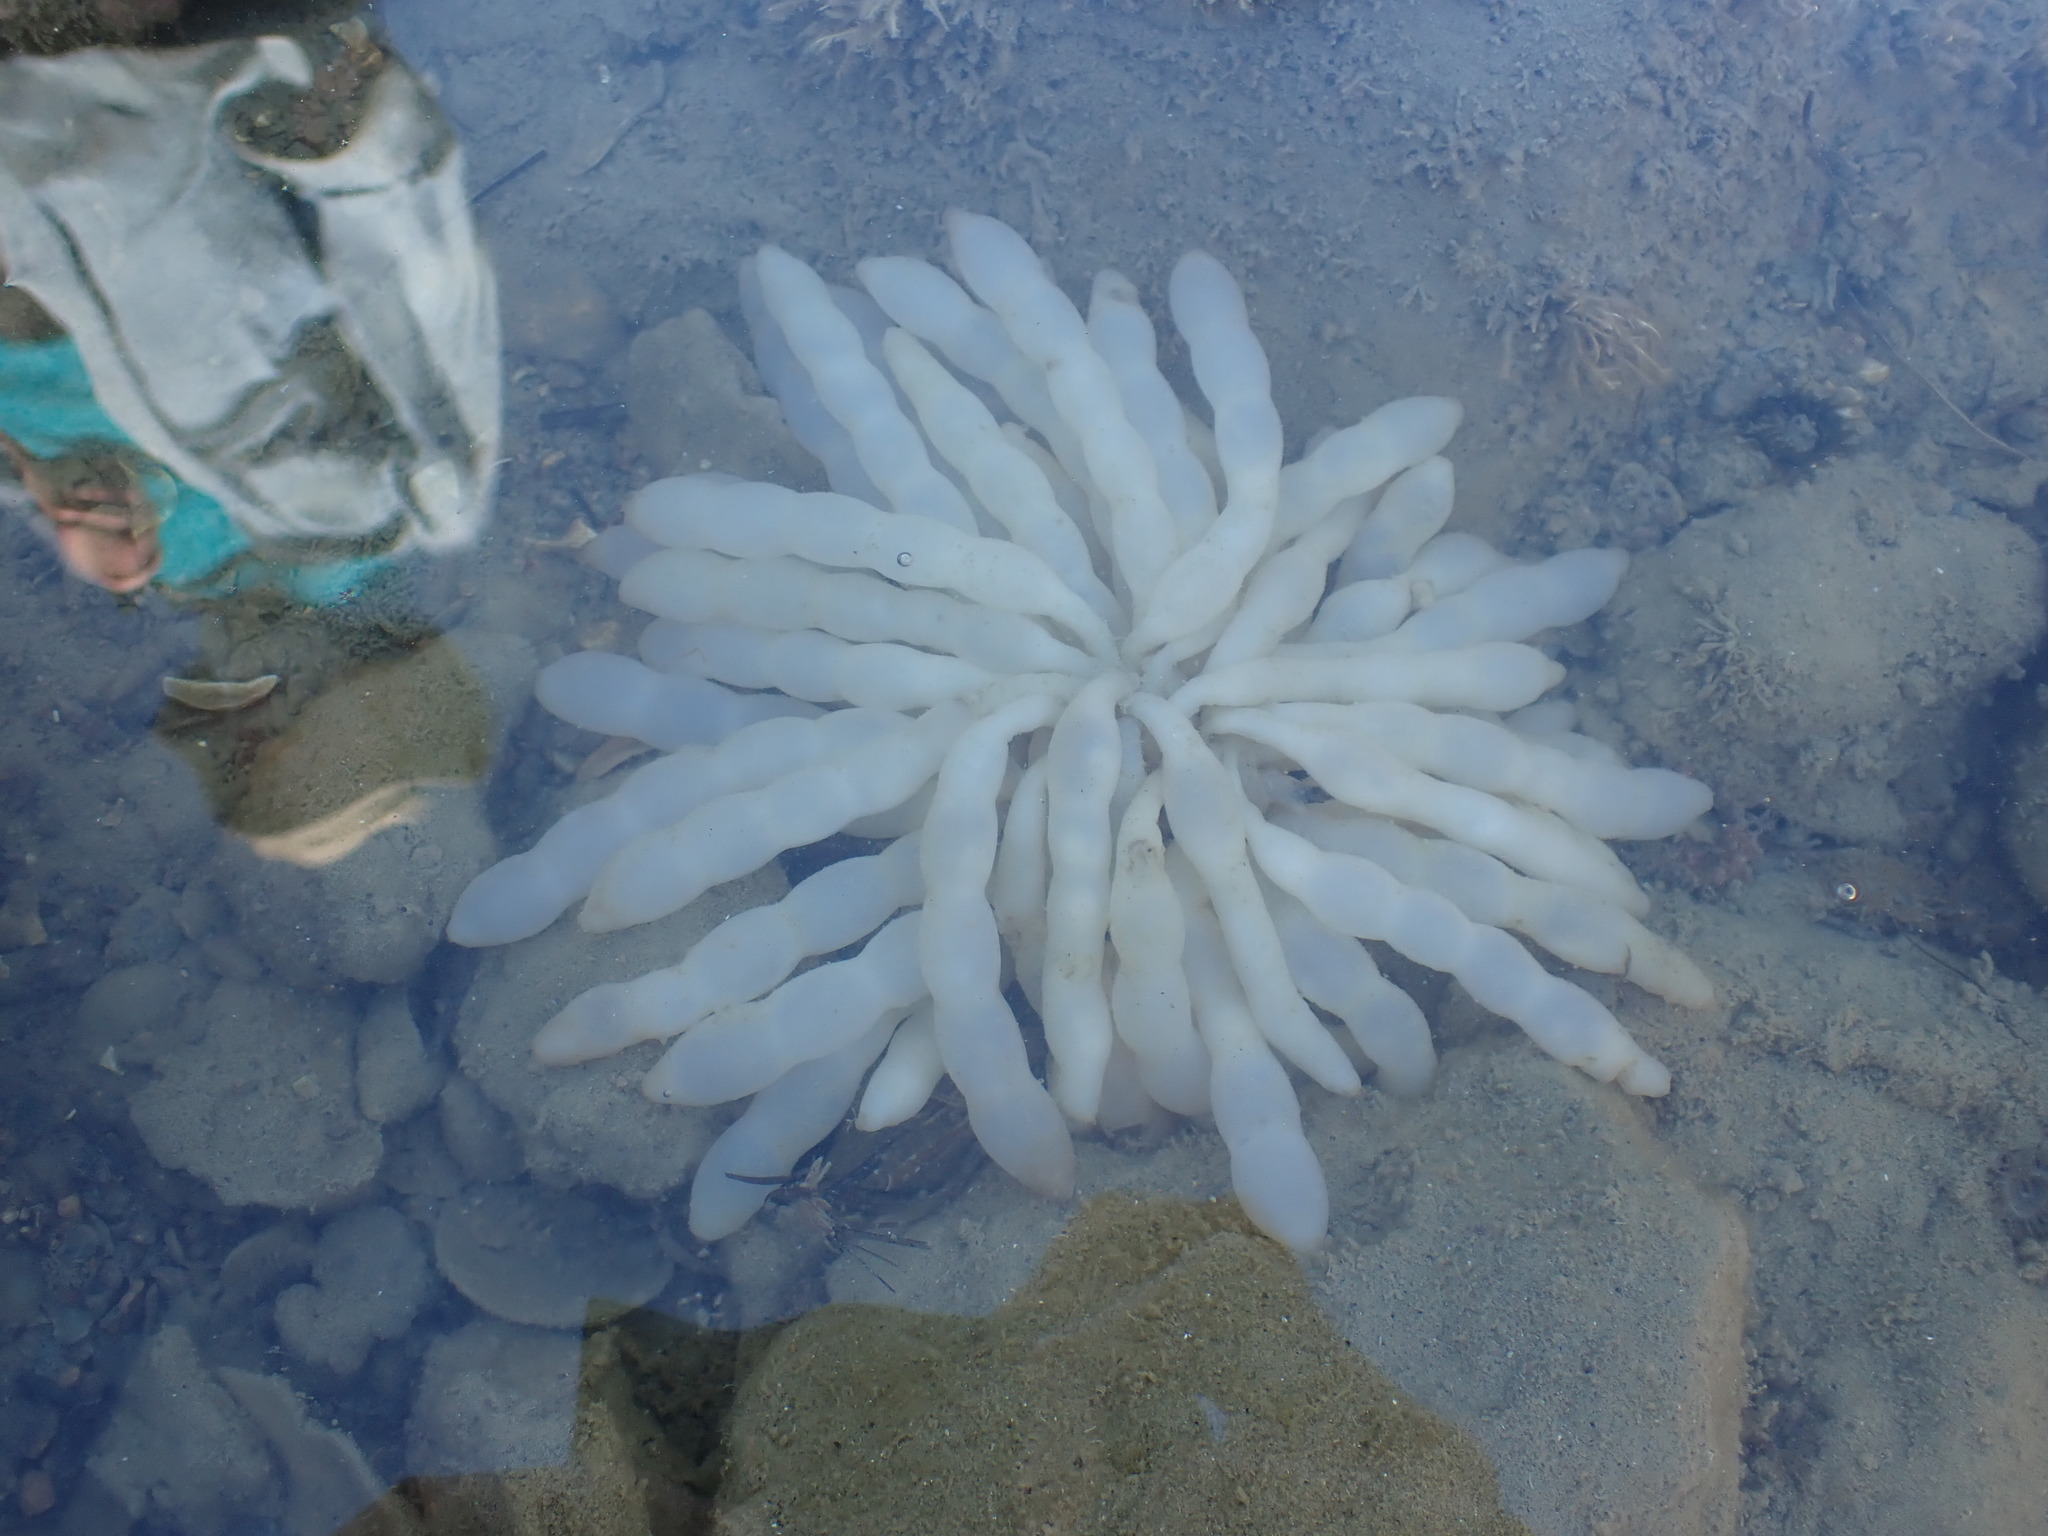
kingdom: Animalia
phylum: Mollusca
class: Cephalopoda
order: Myopsida
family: Loliginidae
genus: Sepioteuthis
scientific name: Sepioteuthis australis
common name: Southern reef squid
